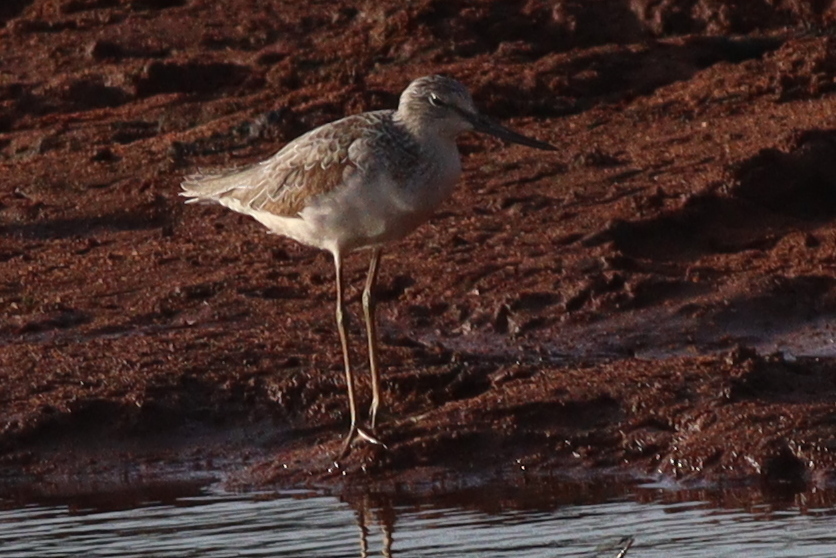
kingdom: Animalia
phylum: Chordata
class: Aves
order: Charadriiformes
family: Scolopacidae
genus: Tringa
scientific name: Tringa nebularia
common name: Common greenshank
